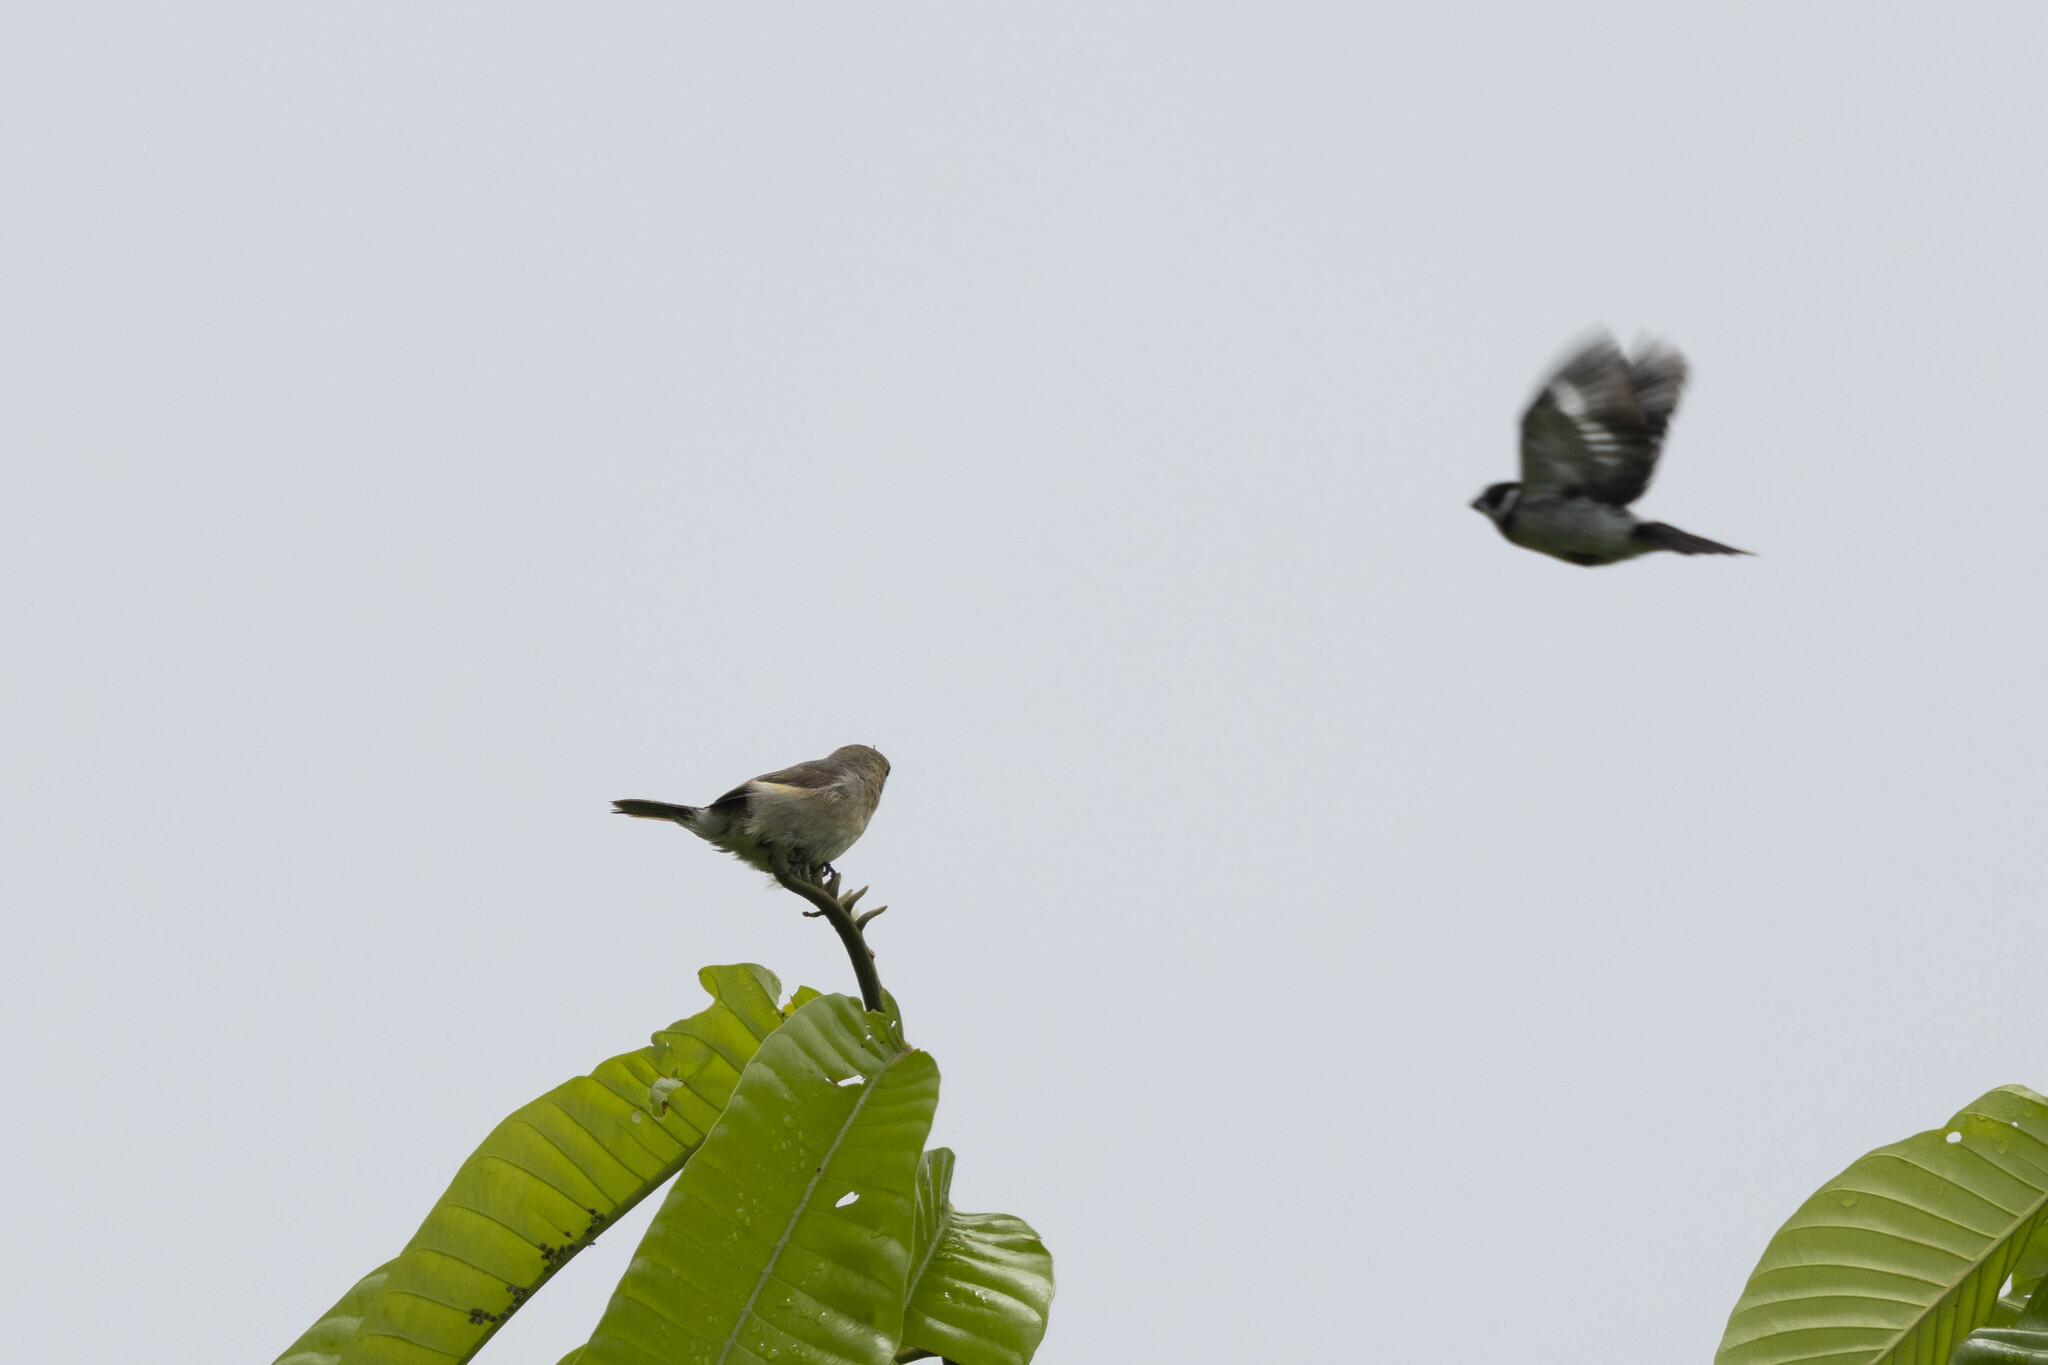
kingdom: Animalia
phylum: Chordata
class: Aves
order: Passeriformes
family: Thraupidae
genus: Sporophila
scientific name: Sporophila corvina
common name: Variable seedeater
